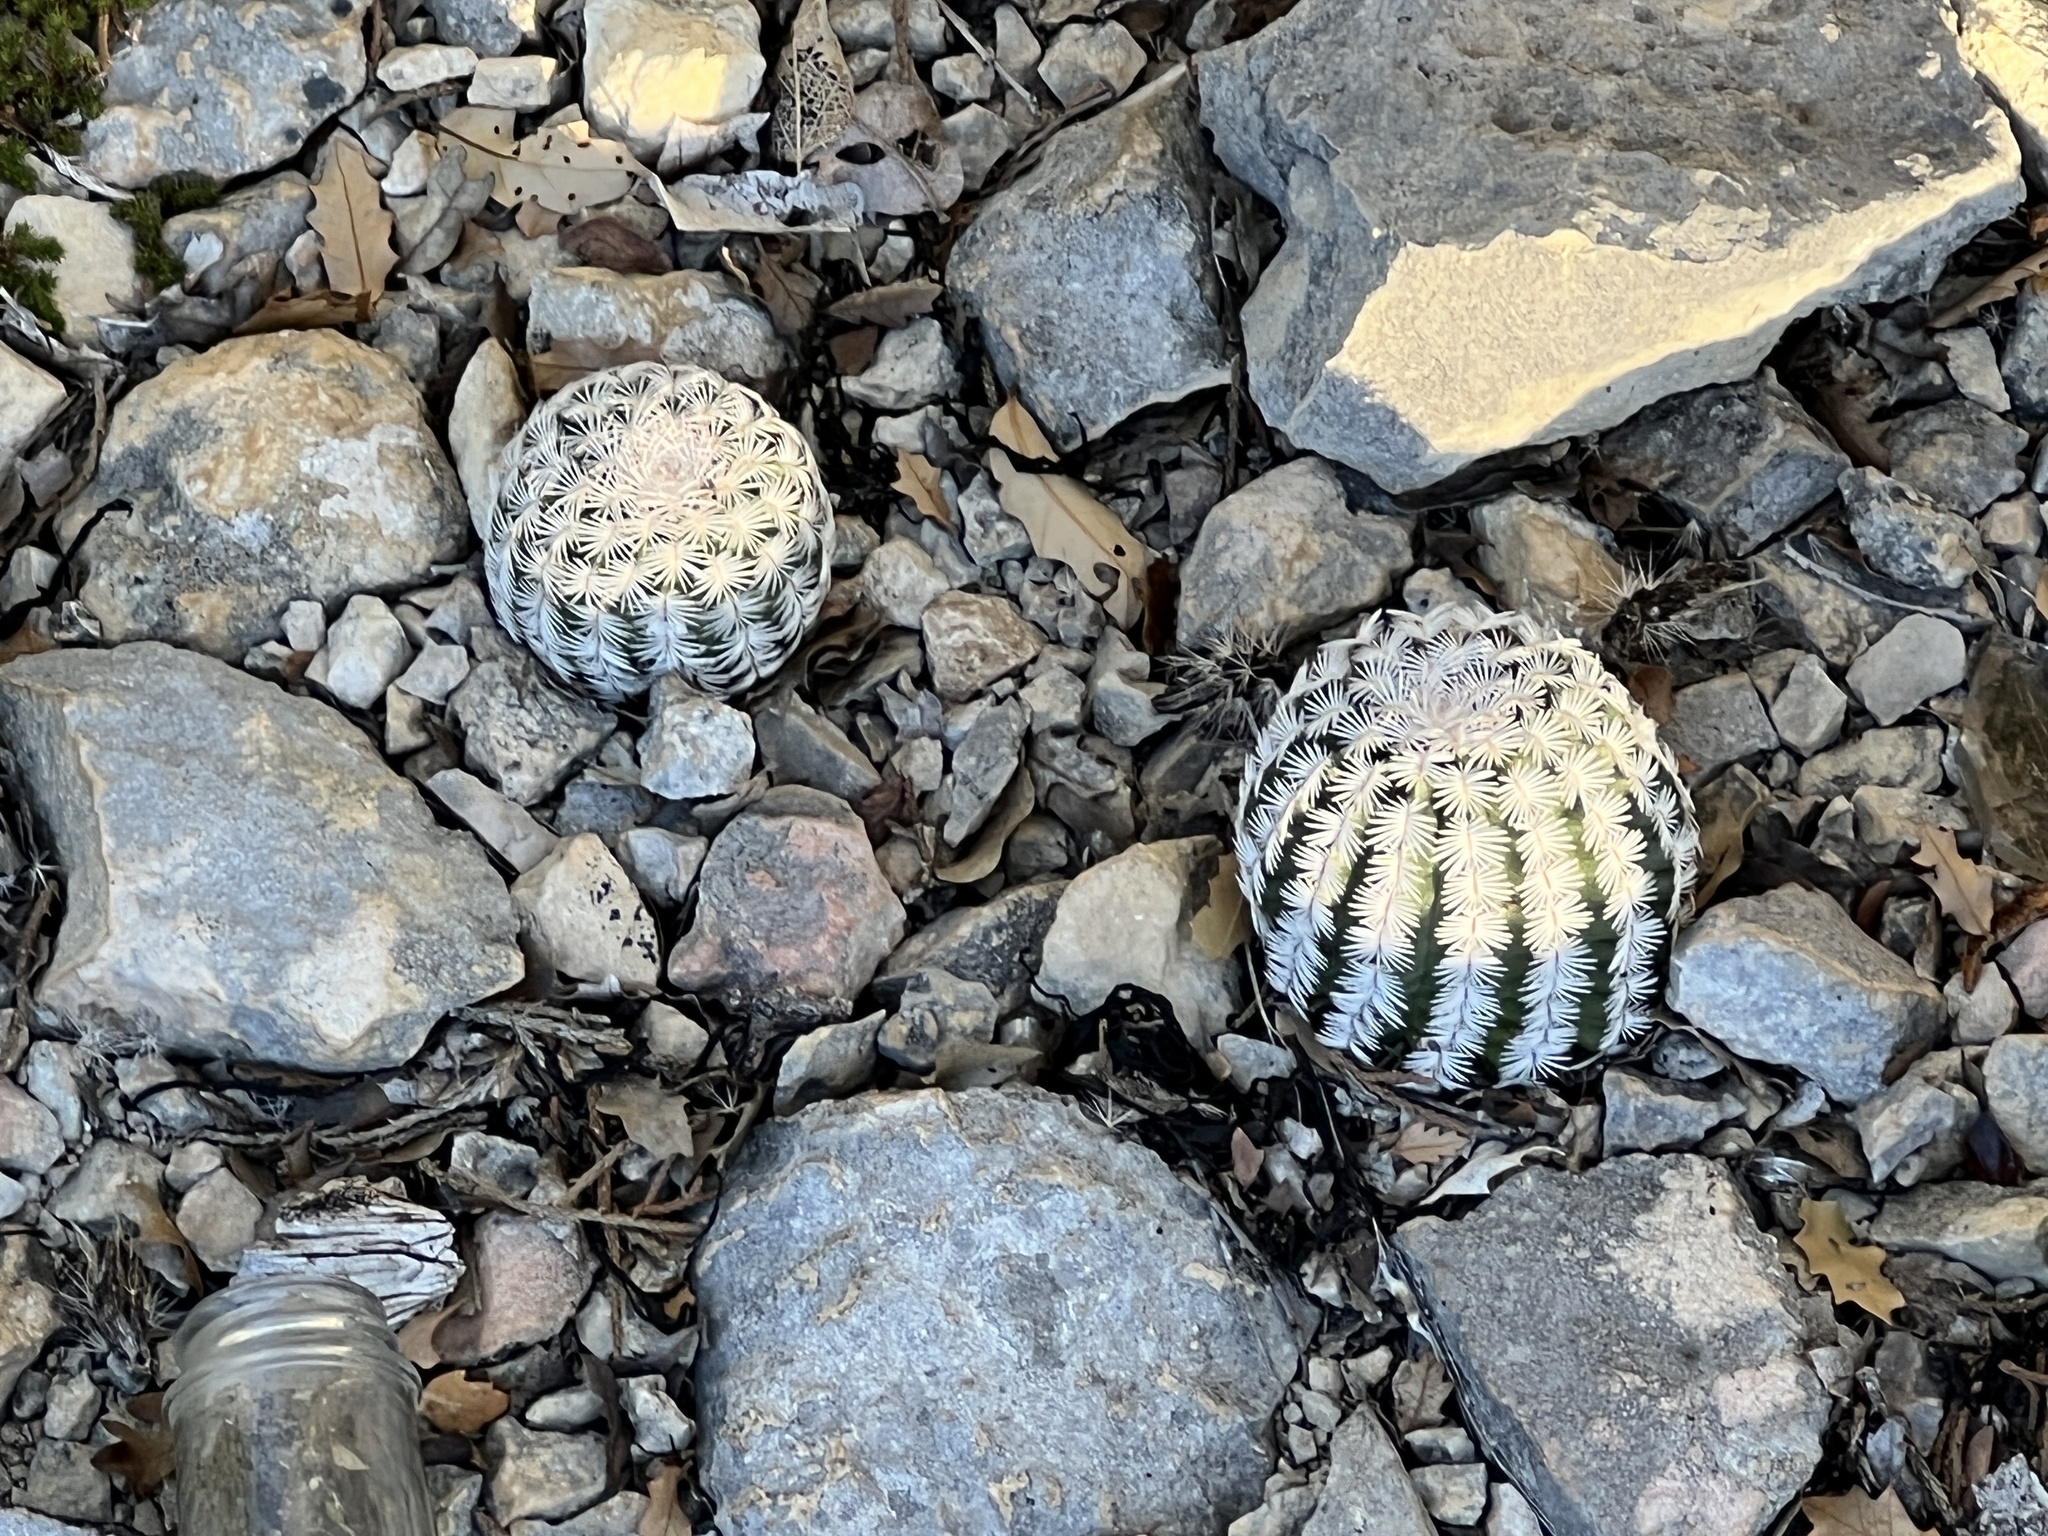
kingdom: Plantae
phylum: Tracheophyta
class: Magnoliopsida
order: Caryophyllales
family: Cactaceae
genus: Echinocereus
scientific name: Echinocereus reichenbachii
